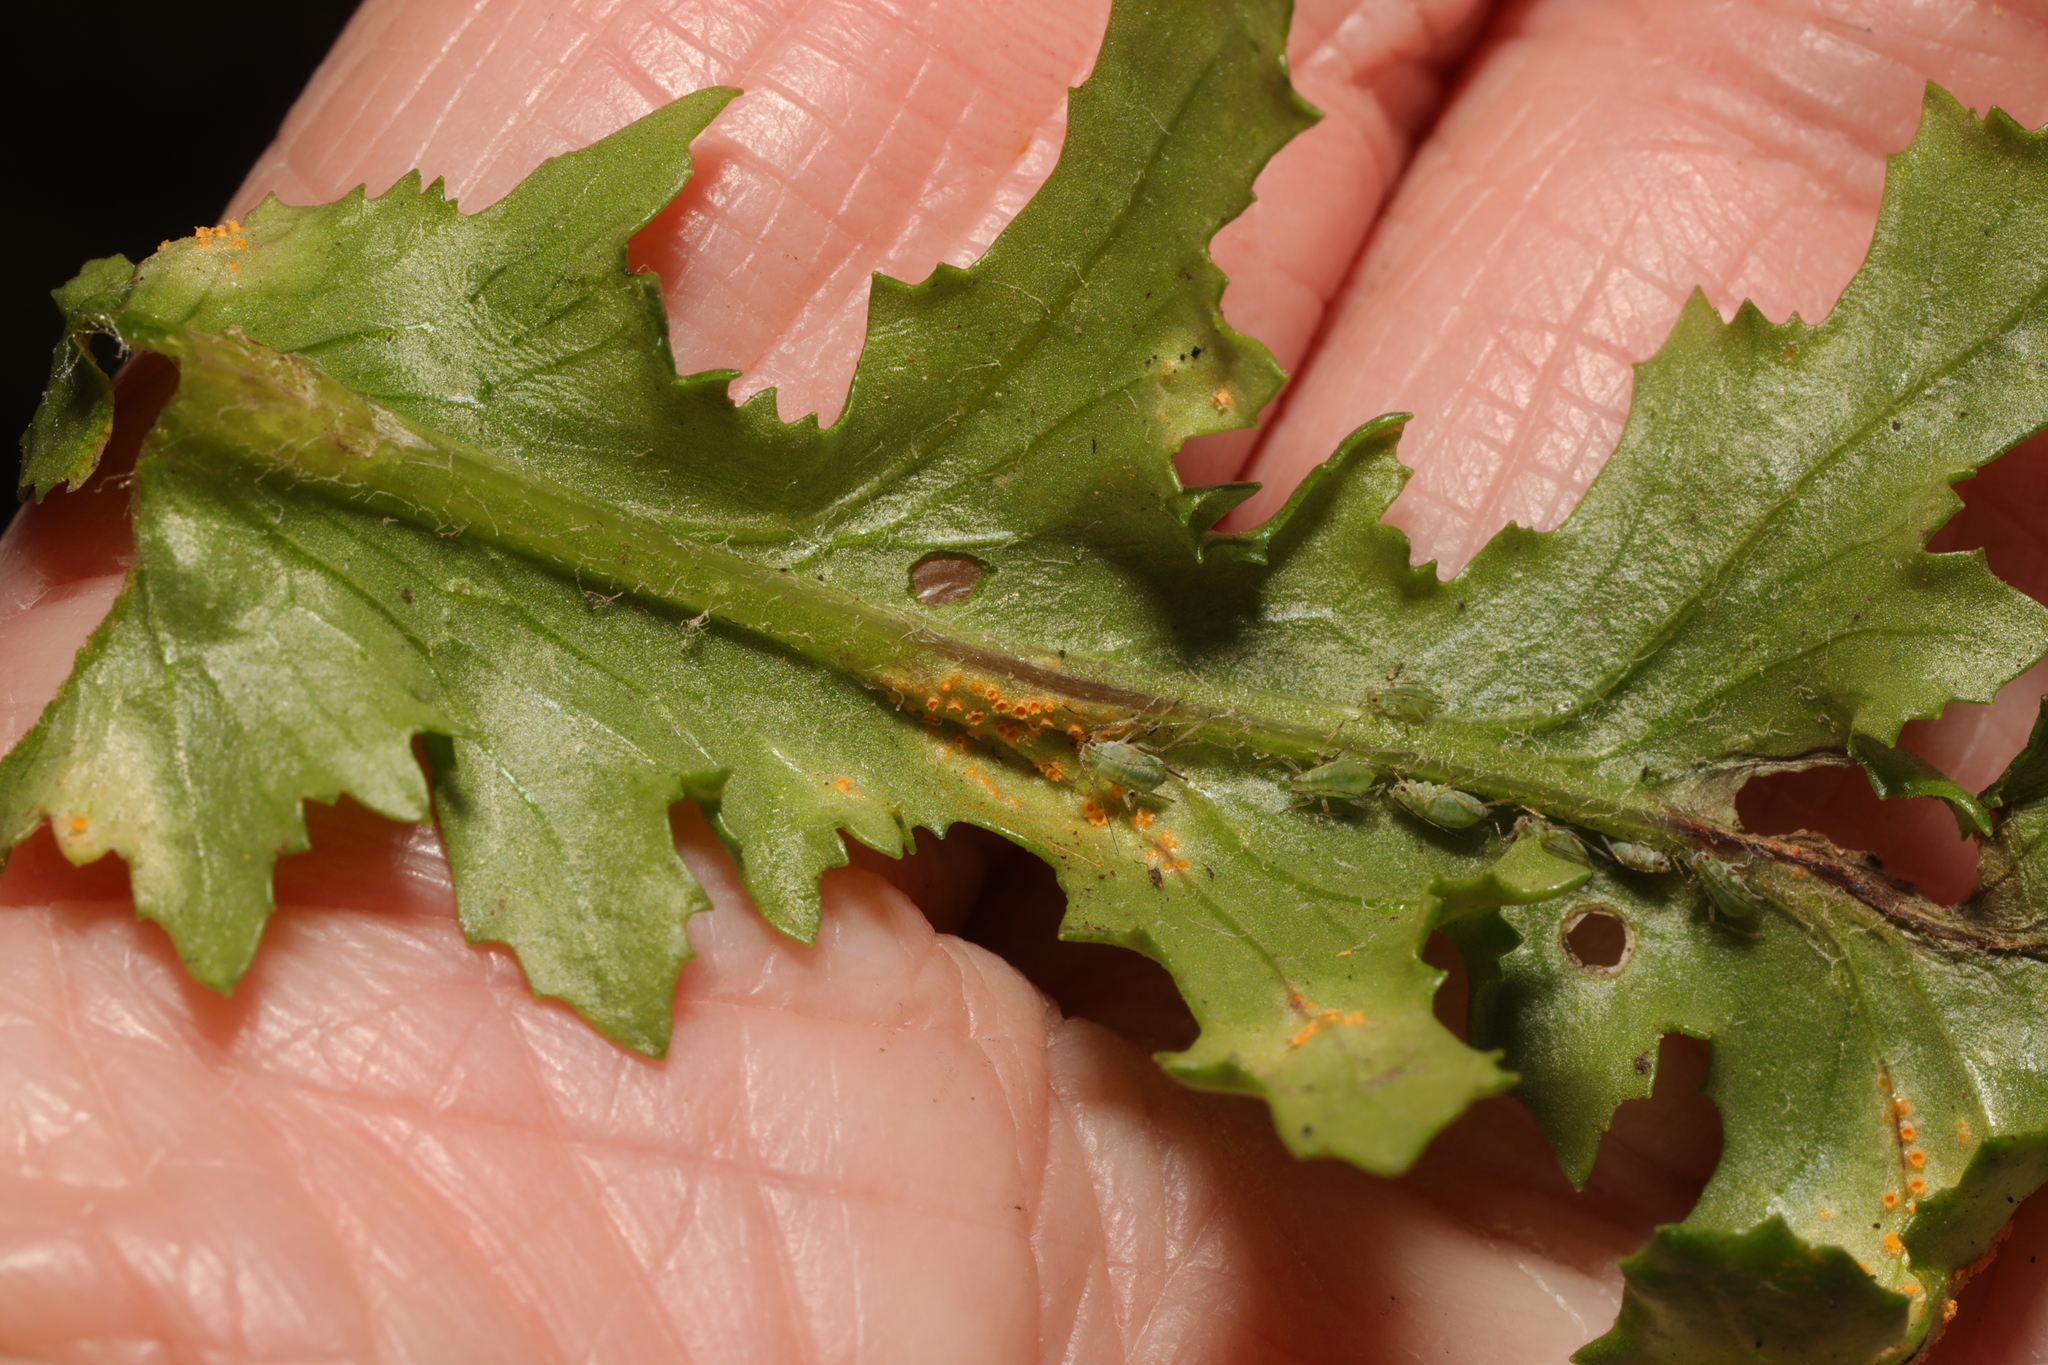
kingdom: Fungi
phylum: Basidiomycota
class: Pucciniomycetes
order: Pucciniales
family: Pucciniaceae
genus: Puccinia
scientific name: Puccinia lagenophorae
